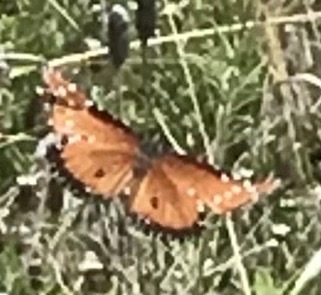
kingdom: Animalia
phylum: Arthropoda
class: Insecta
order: Lepidoptera
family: Nymphalidae
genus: Danaus
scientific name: Danaus gilippus
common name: Queen
